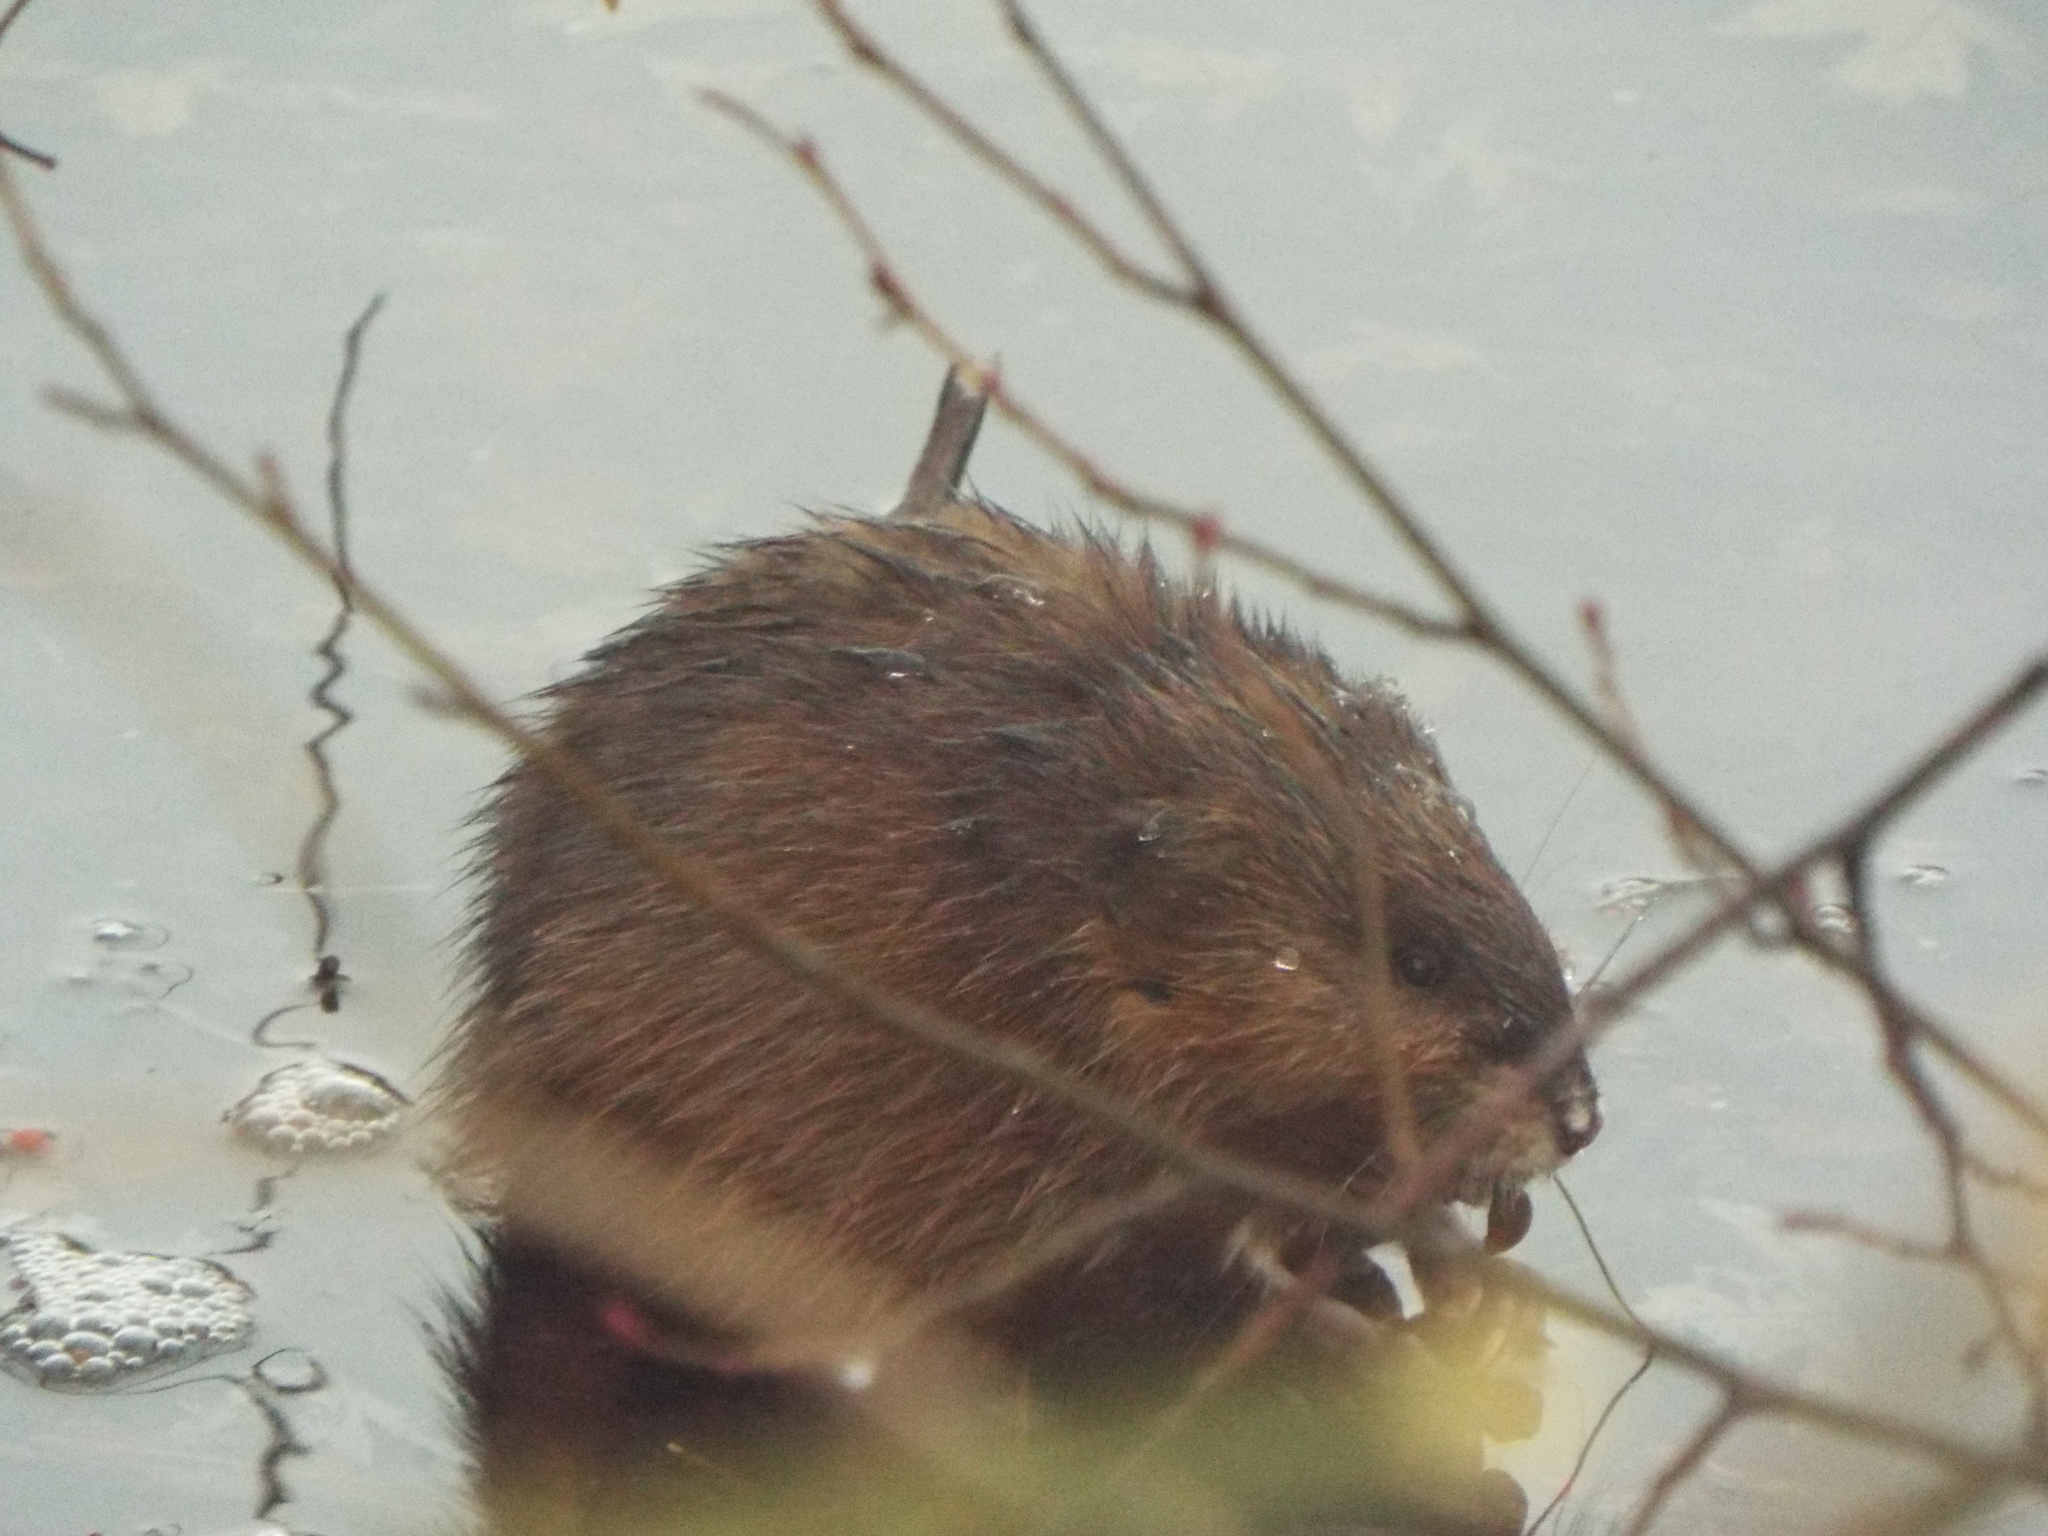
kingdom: Animalia
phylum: Chordata
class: Mammalia
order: Rodentia
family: Cricetidae
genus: Ondatra
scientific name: Ondatra zibethicus
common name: Muskrat
